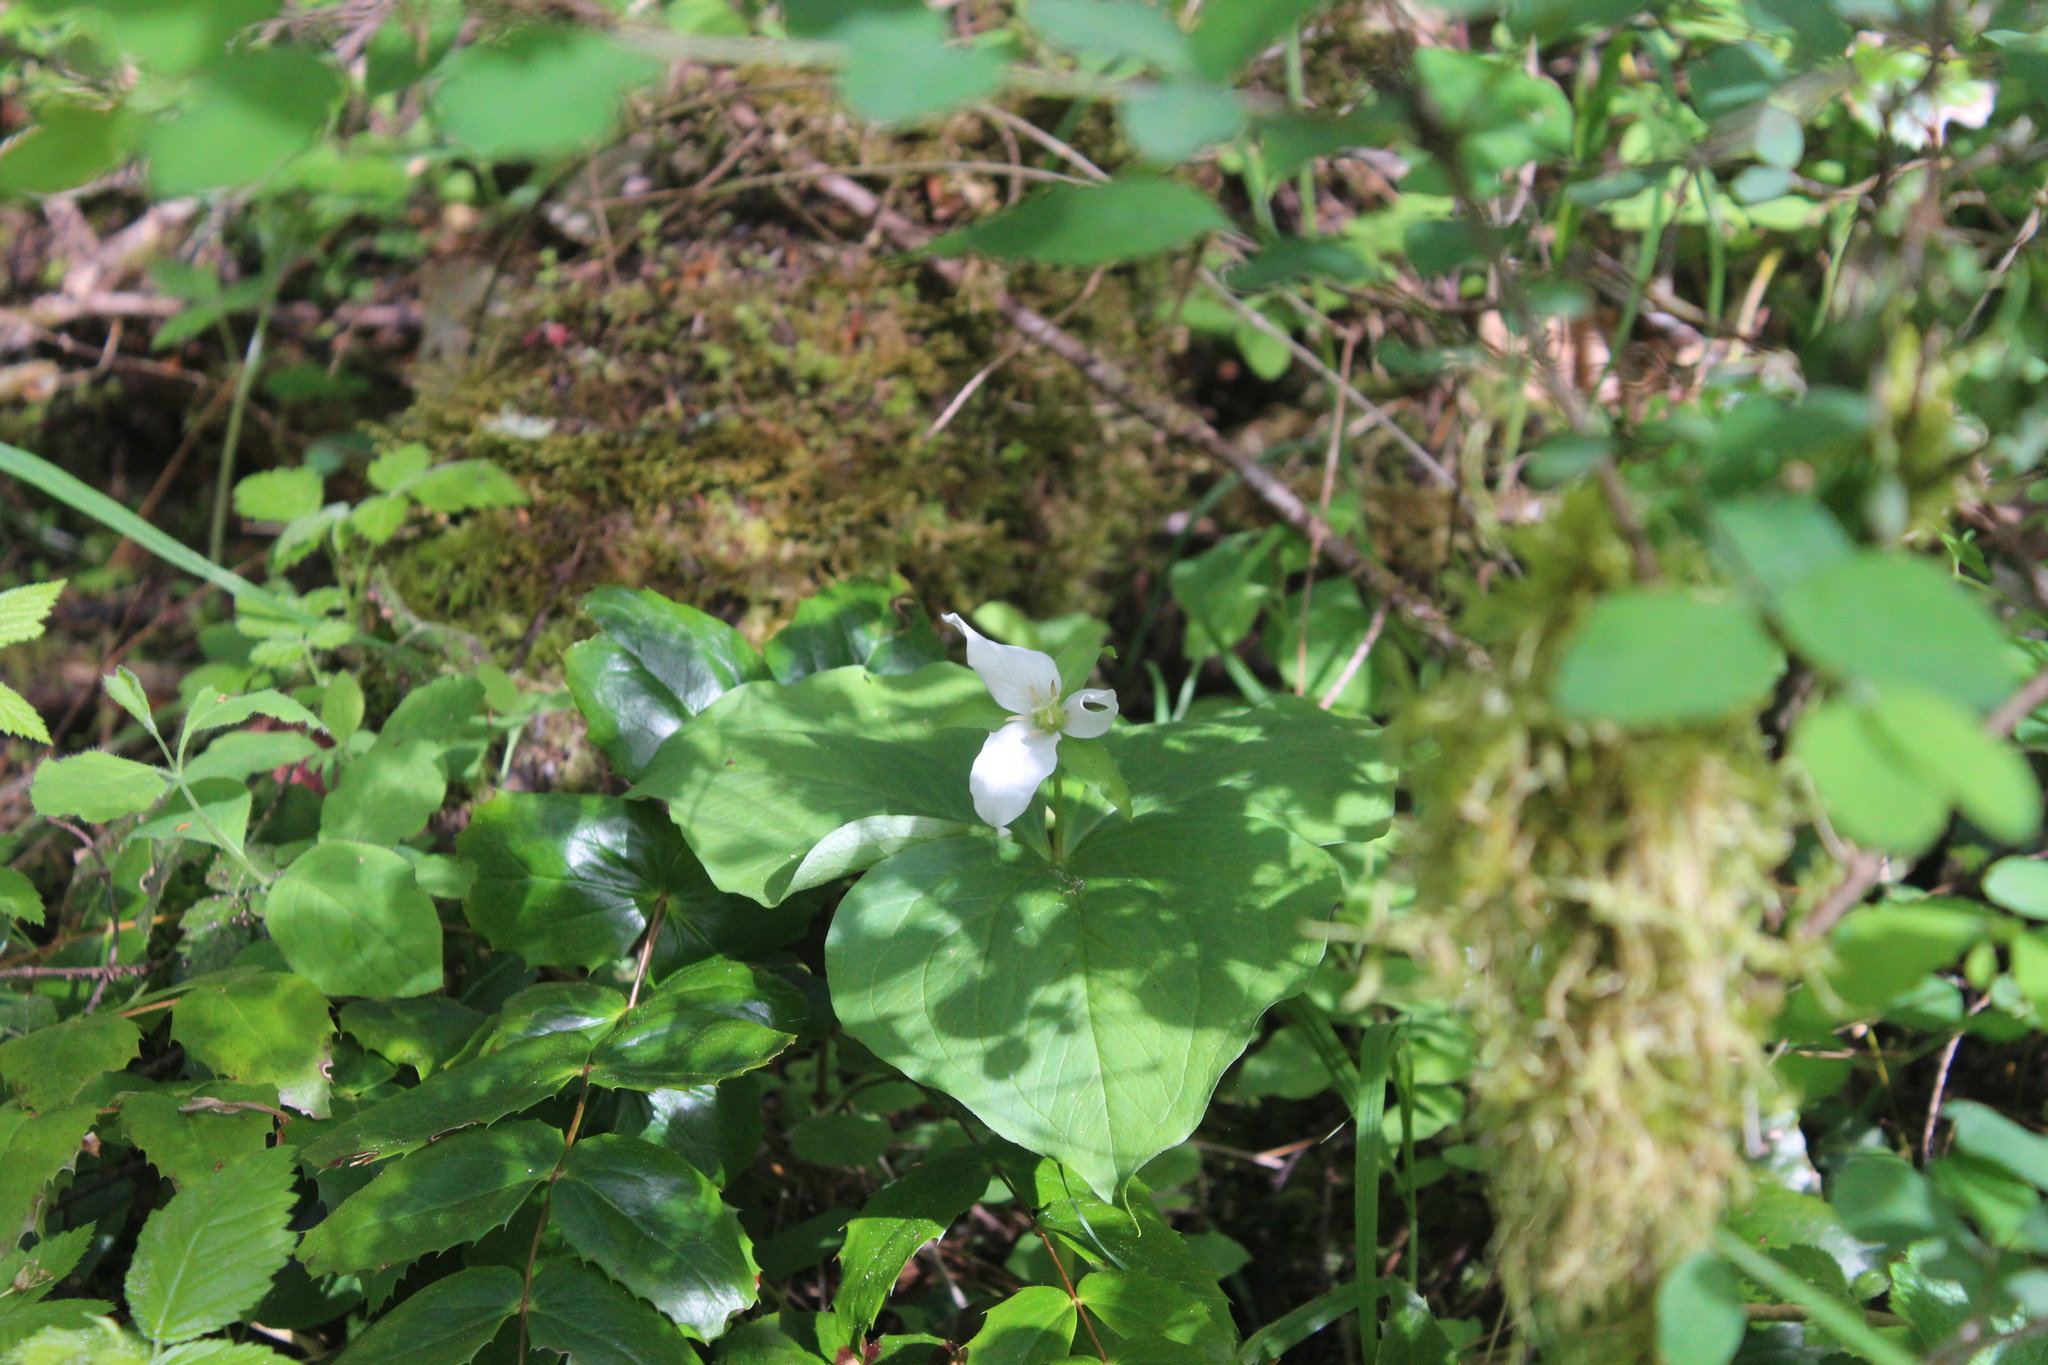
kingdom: Plantae
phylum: Tracheophyta
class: Liliopsida
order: Liliales
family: Melanthiaceae
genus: Trillium
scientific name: Trillium ovatum
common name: Pacific trillium
